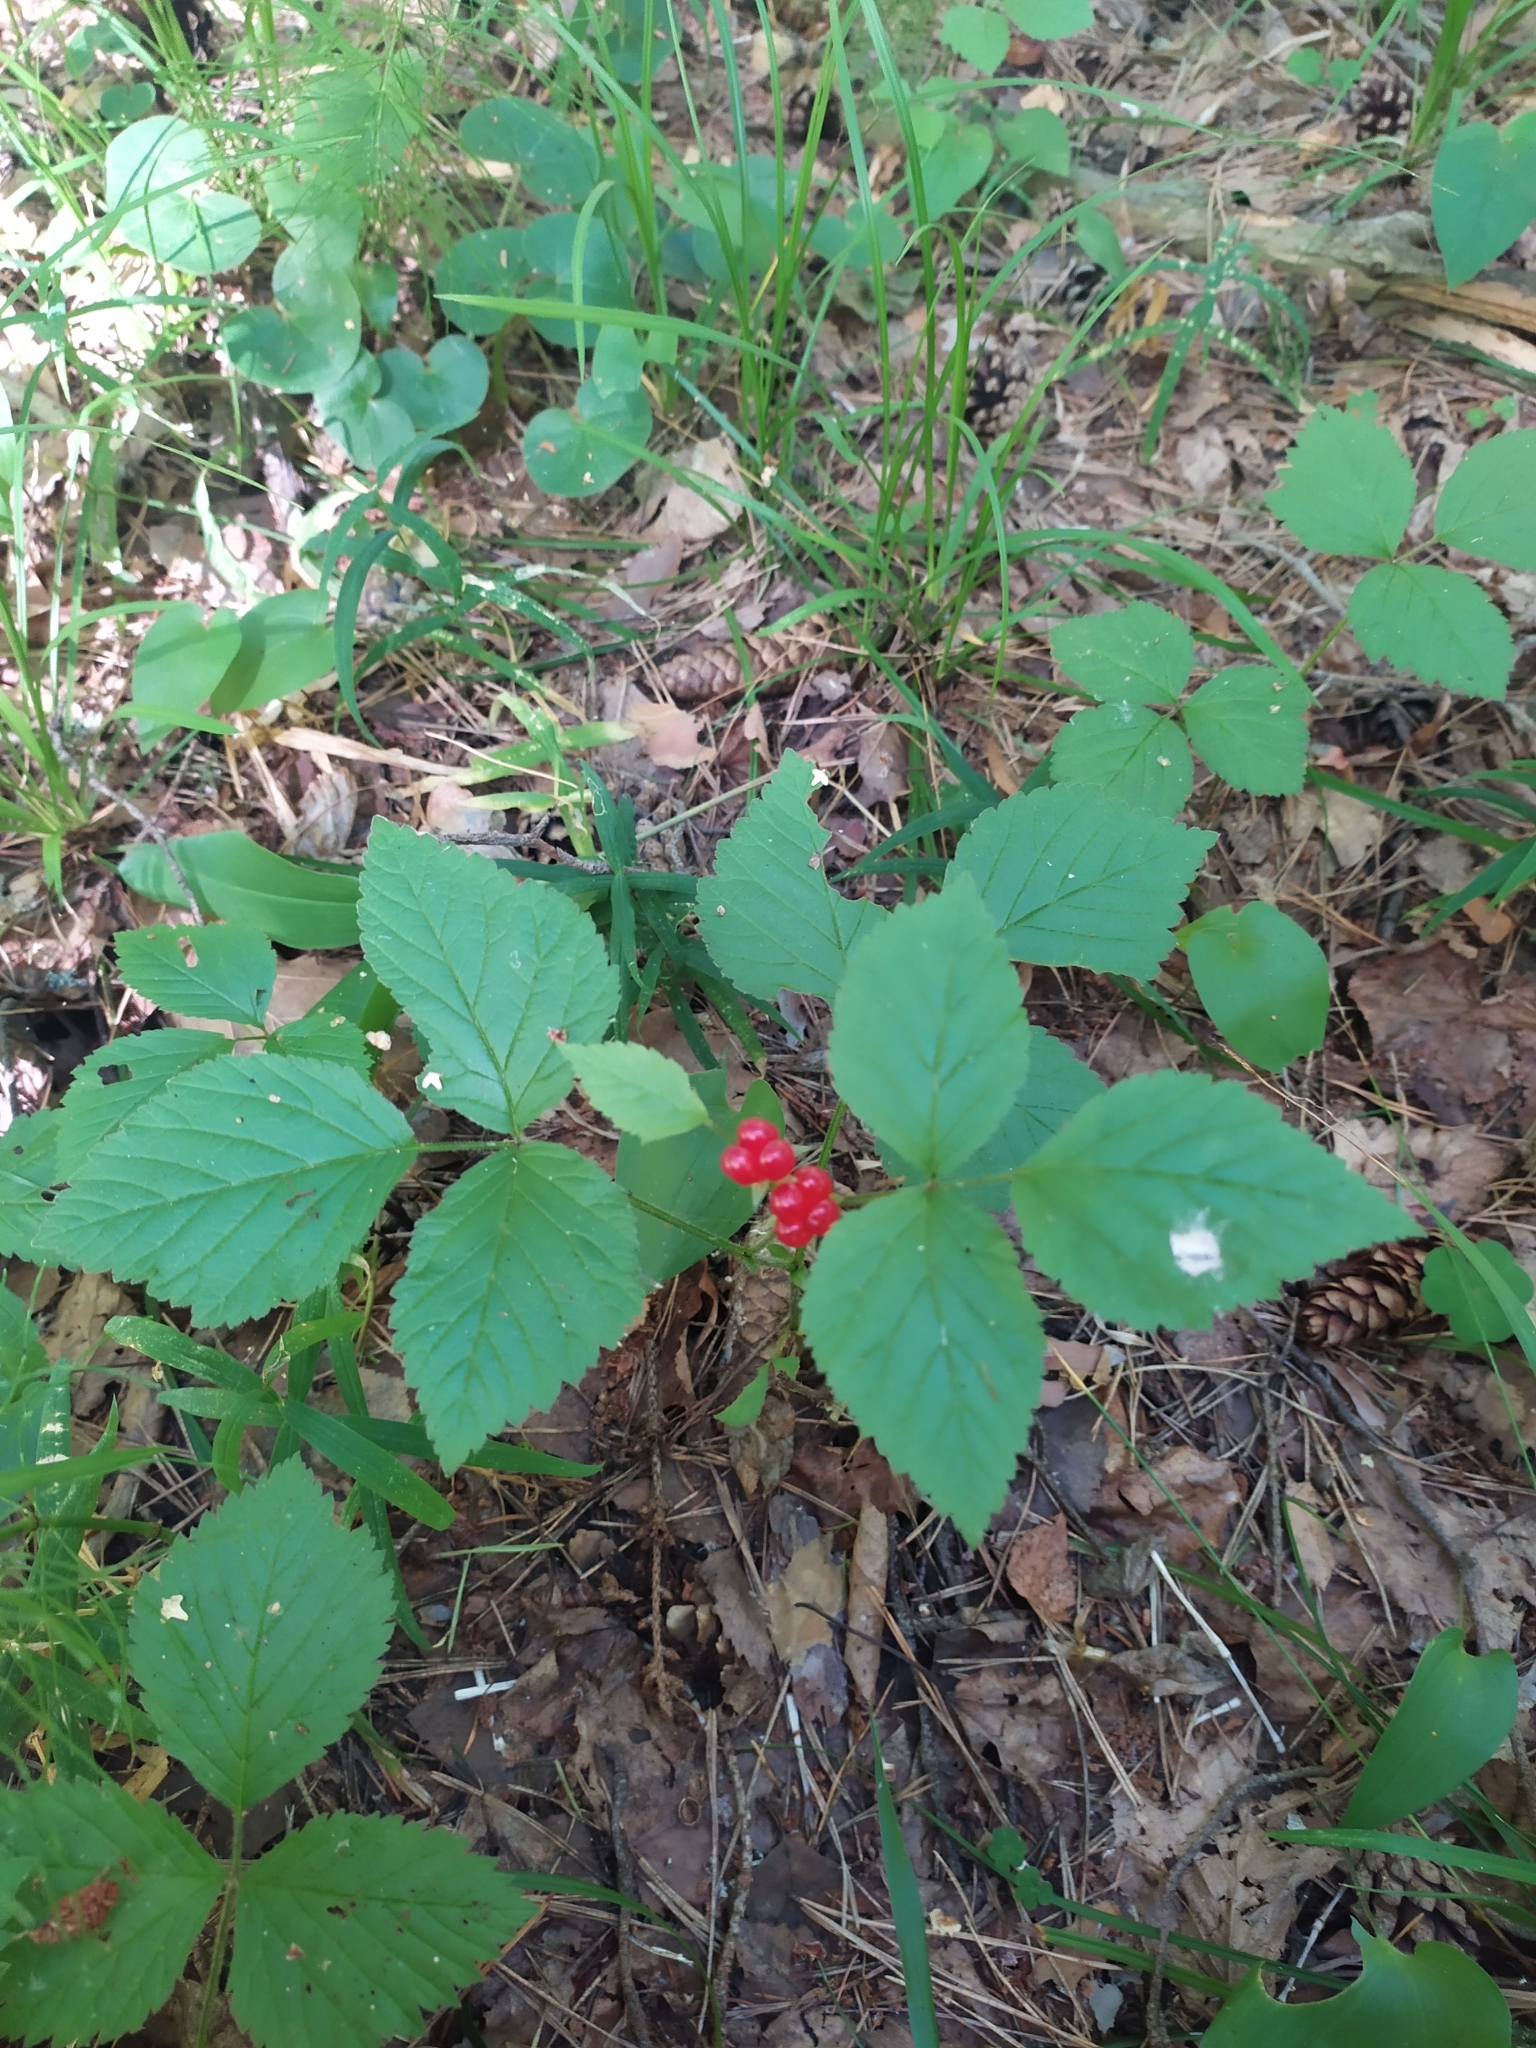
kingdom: Plantae
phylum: Tracheophyta
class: Magnoliopsida
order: Rosales
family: Rosaceae
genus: Rubus
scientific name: Rubus saxatilis
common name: Stone bramble
